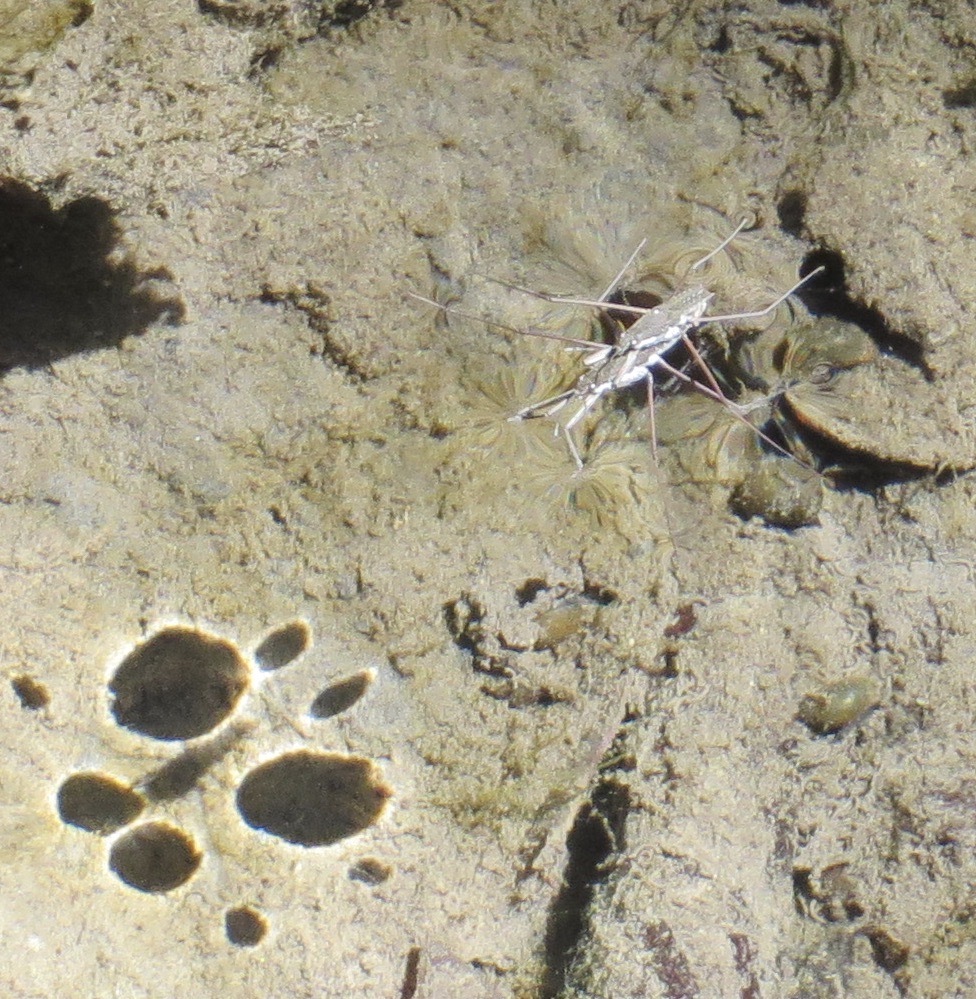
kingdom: Animalia
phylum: Arthropoda
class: Insecta
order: Hemiptera
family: Gerridae
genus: Aquarius
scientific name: Aquarius remigis
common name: Common water strider
